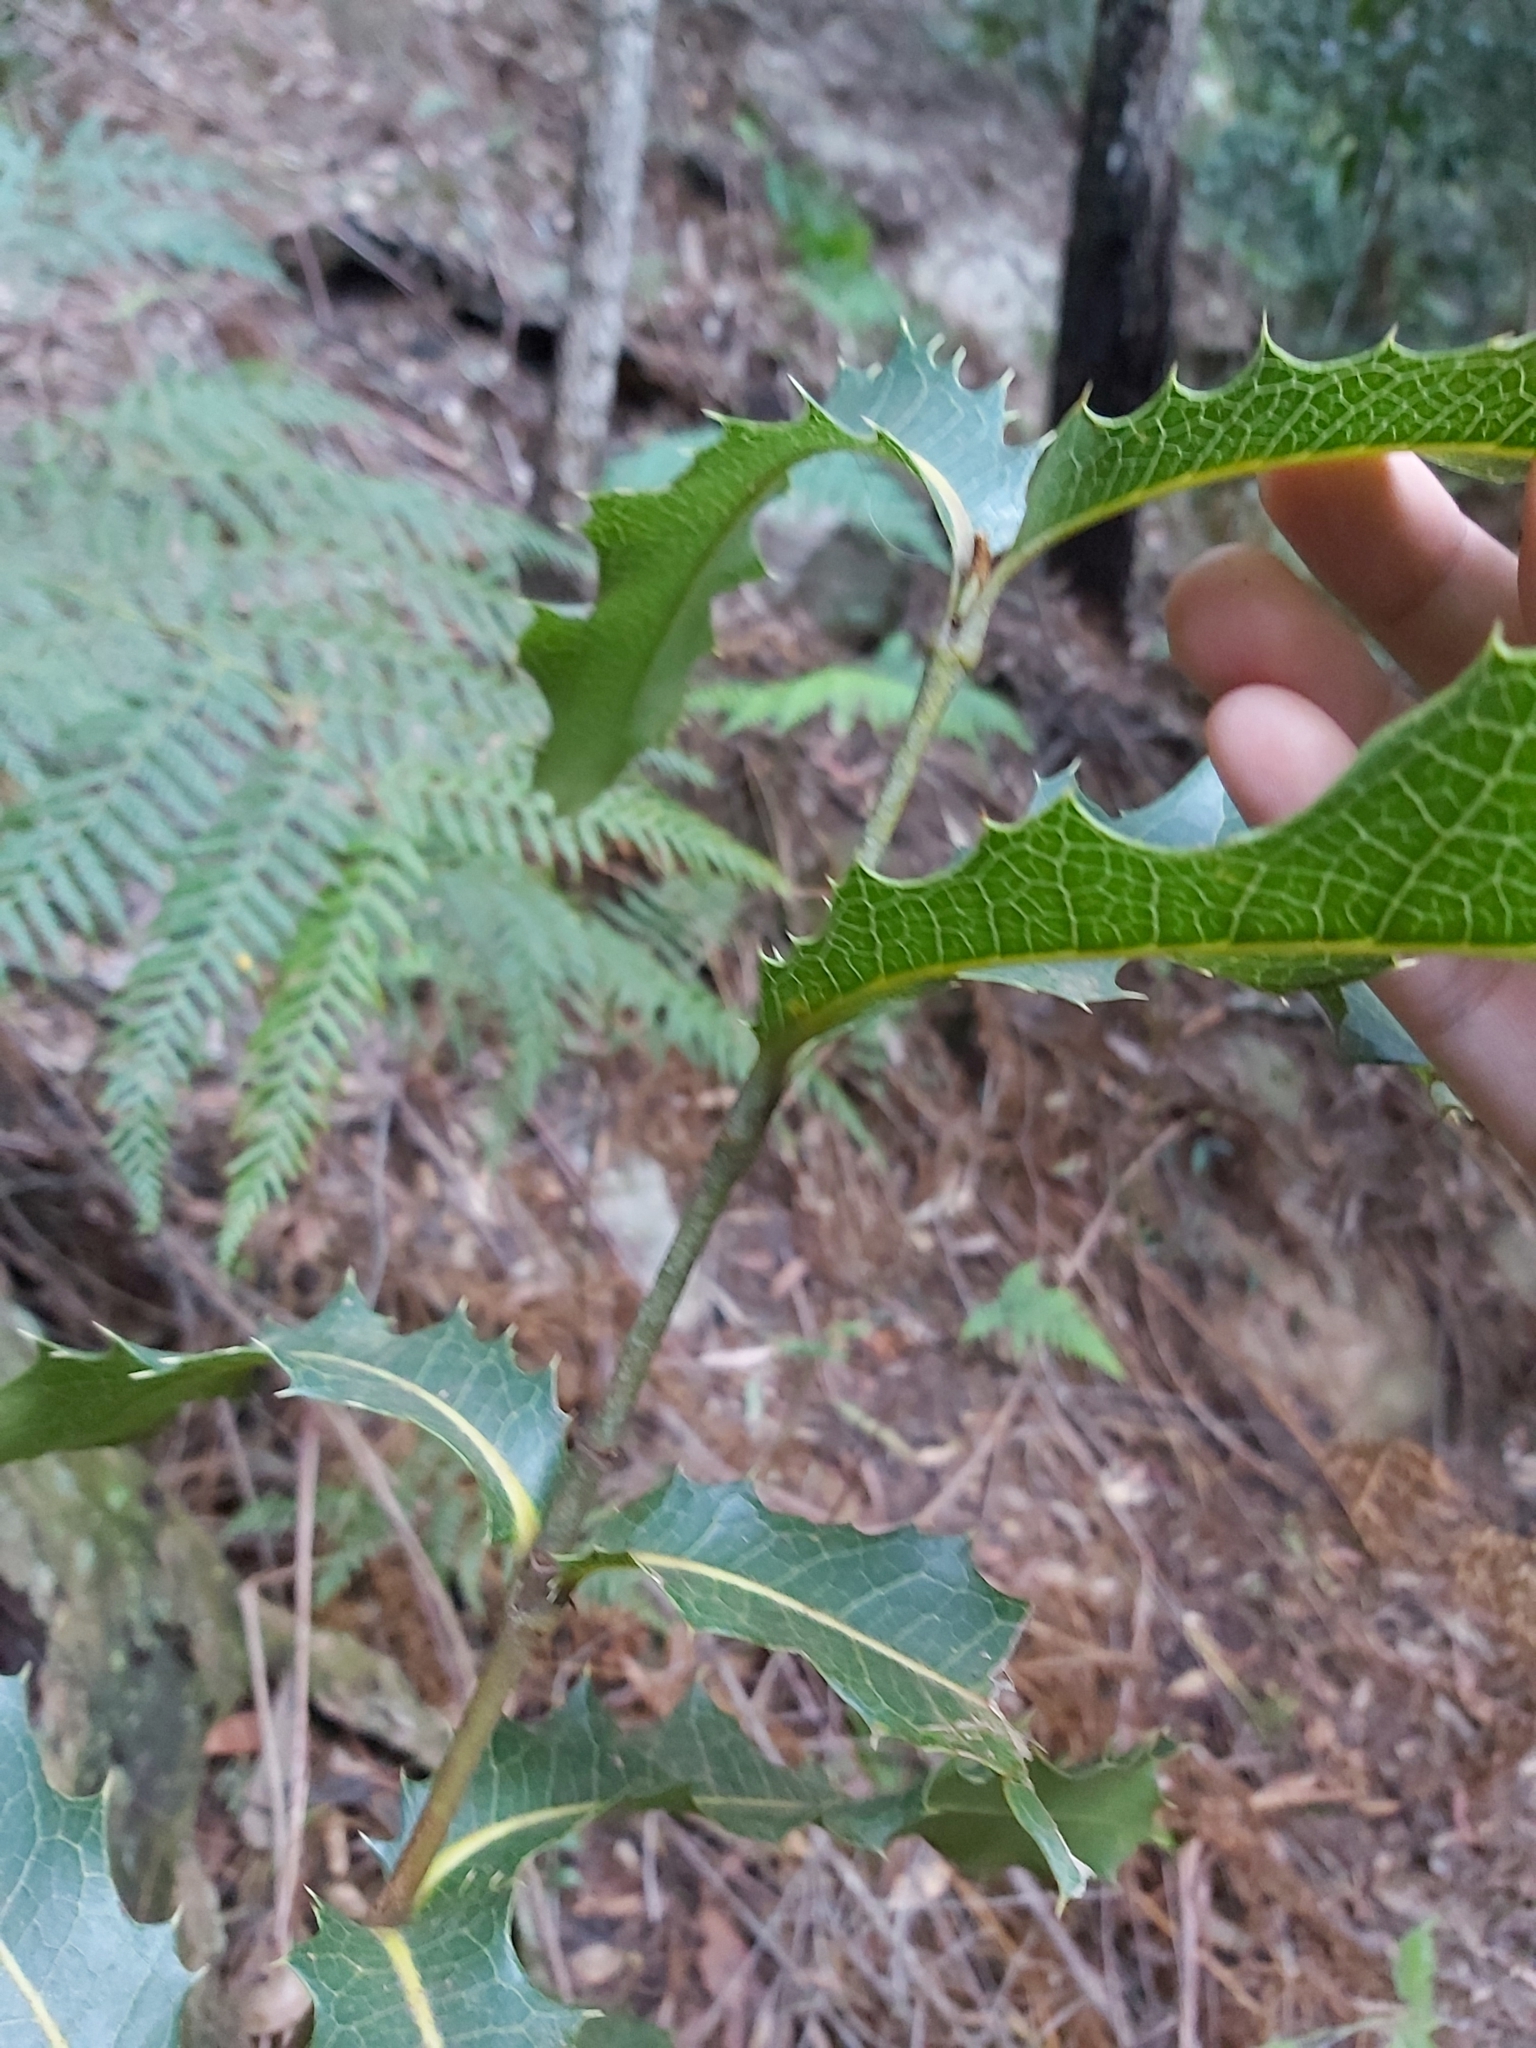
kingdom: Plantae
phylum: Tracheophyta
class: Magnoliopsida
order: Proteales
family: Proteaceae
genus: Xylomelum
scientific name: Xylomelum pyriforme
